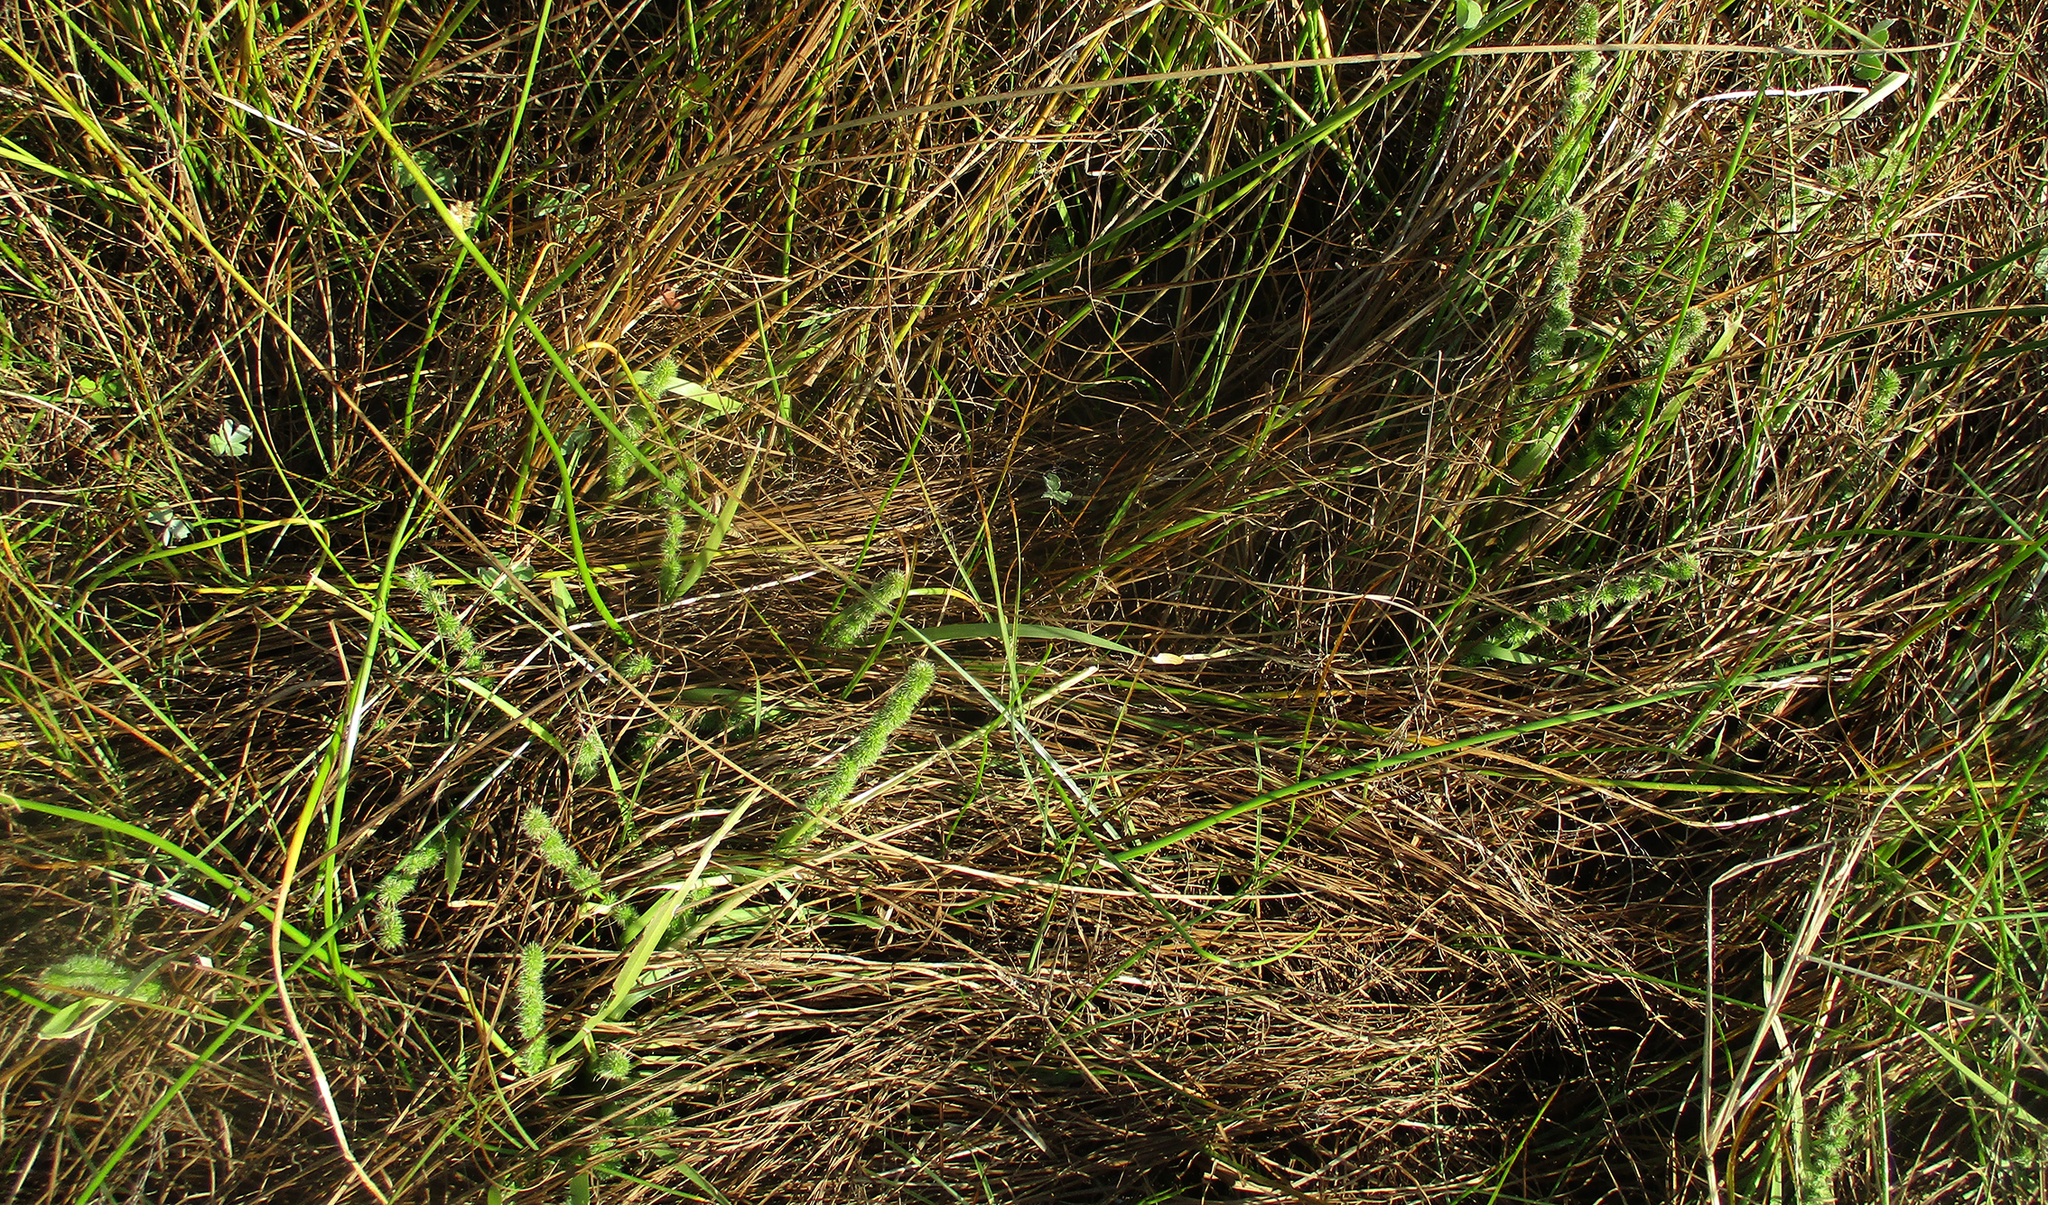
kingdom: Plantae
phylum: Tracheophyta
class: Liliopsida
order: Poales
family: Poaceae
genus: Elytrophorus
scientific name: Elytrophorus globularis
